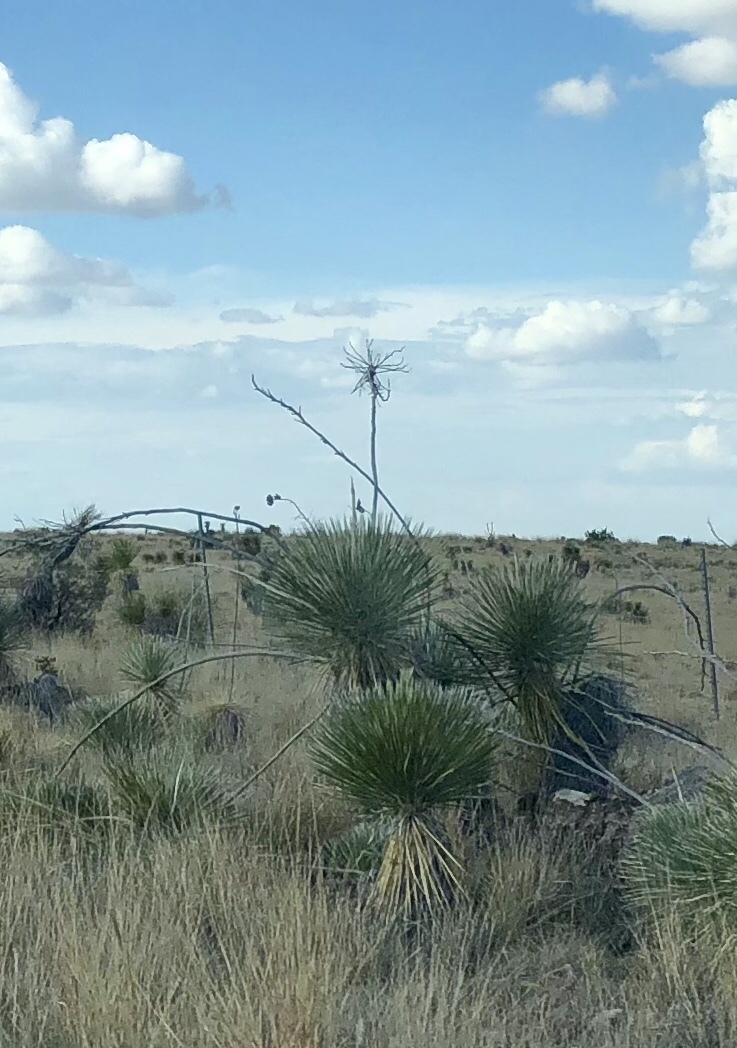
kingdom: Plantae
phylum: Tracheophyta
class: Liliopsida
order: Asparagales
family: Asparagaceae
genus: Yucca
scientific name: Yucca elata
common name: Palmella
